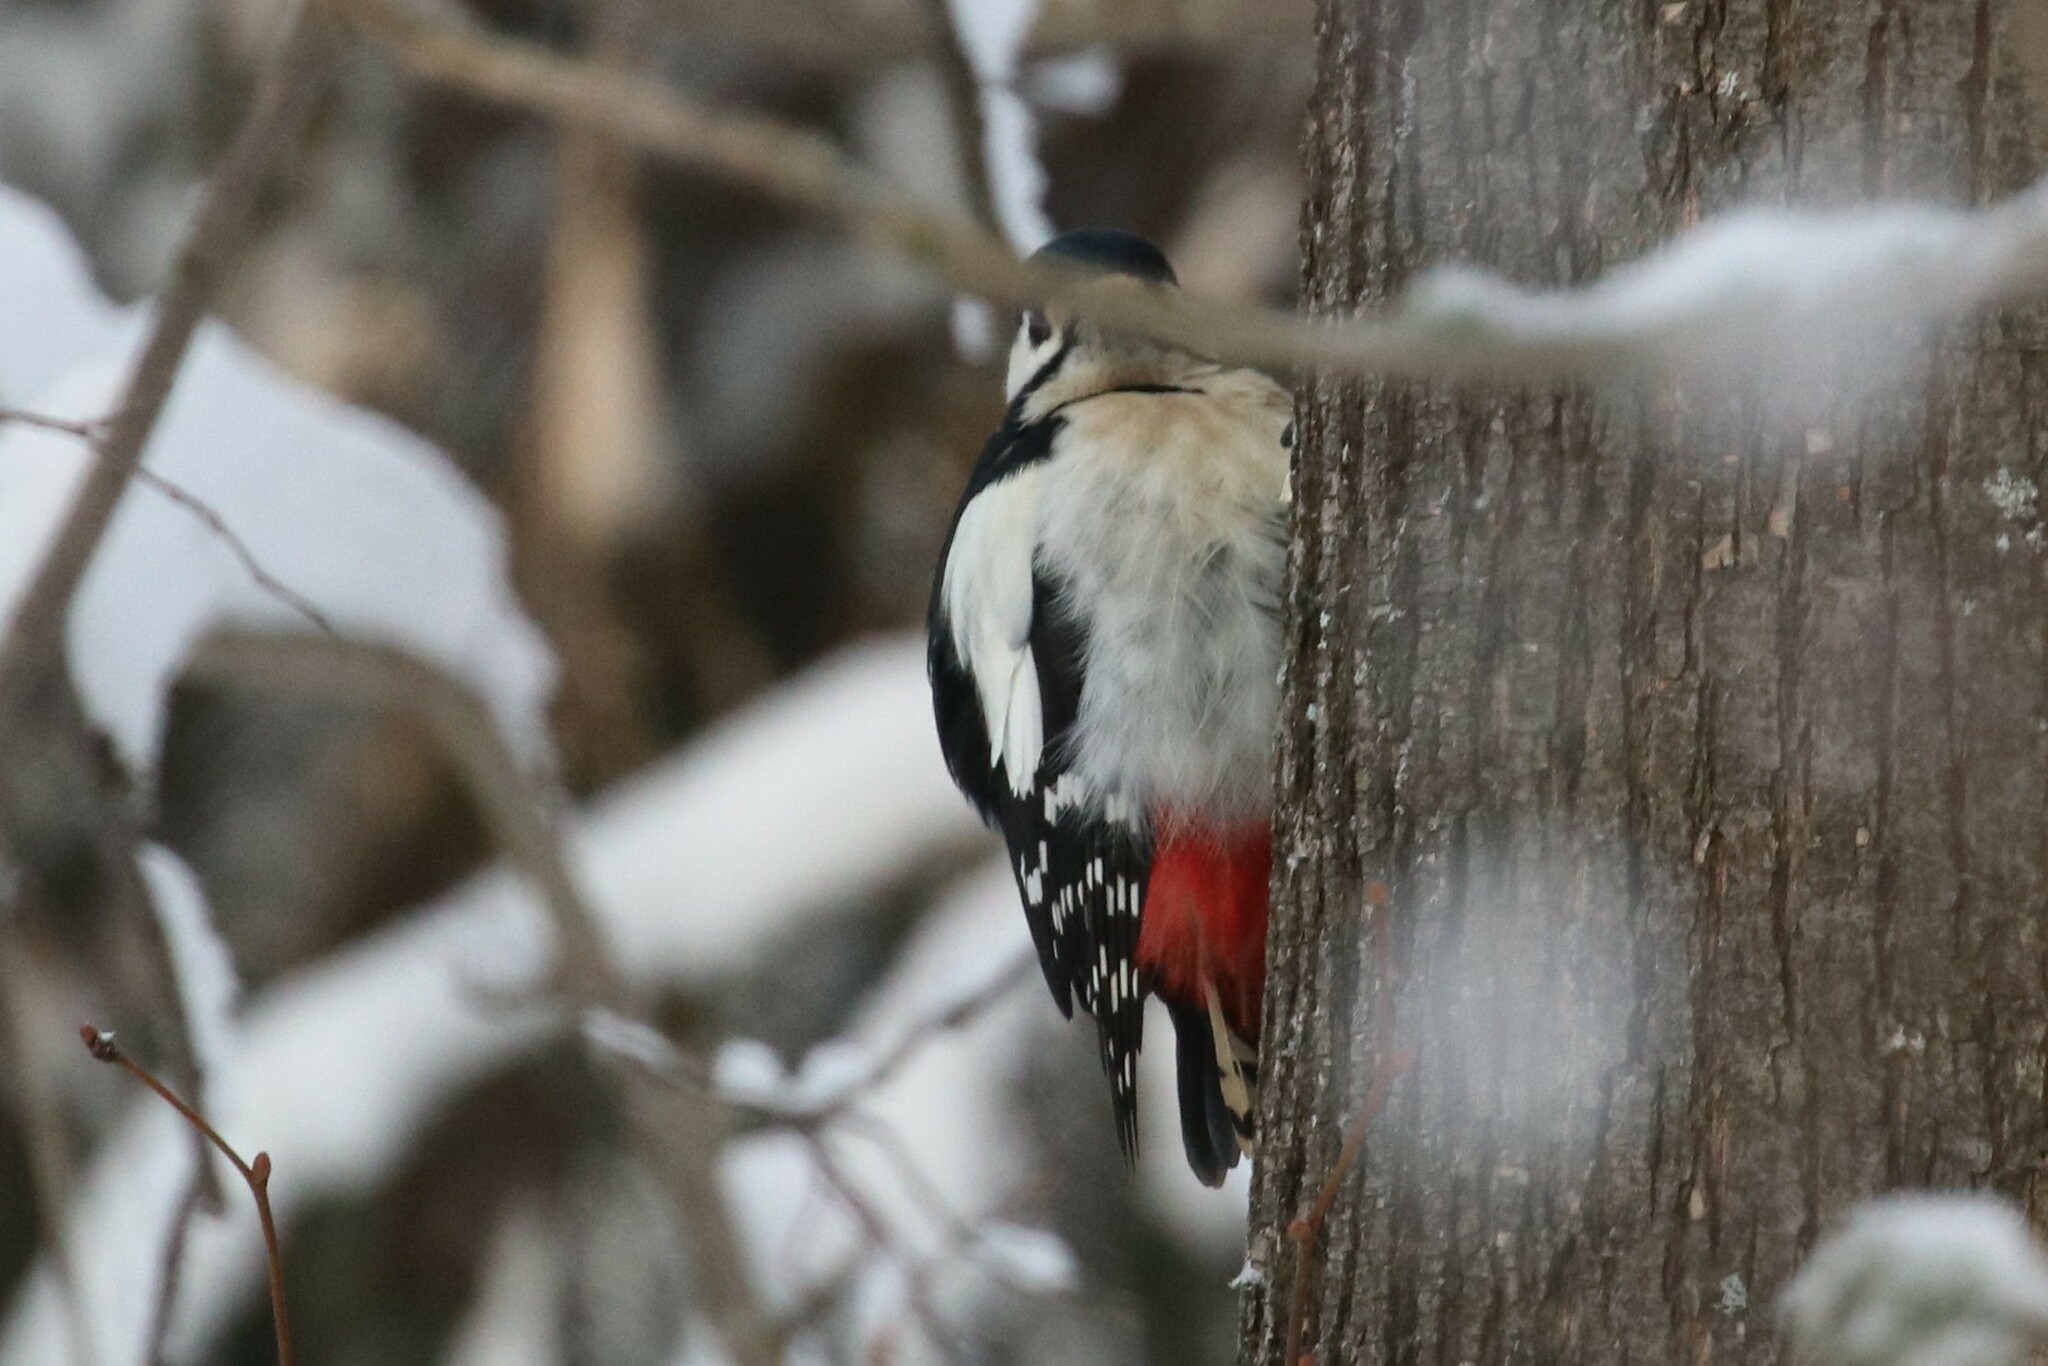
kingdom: Animalia
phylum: Chordata
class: Aves
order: Piciformes
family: Picidae
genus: Dendrocopos
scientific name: Dendrocopos major
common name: Great spotted woodpecker
